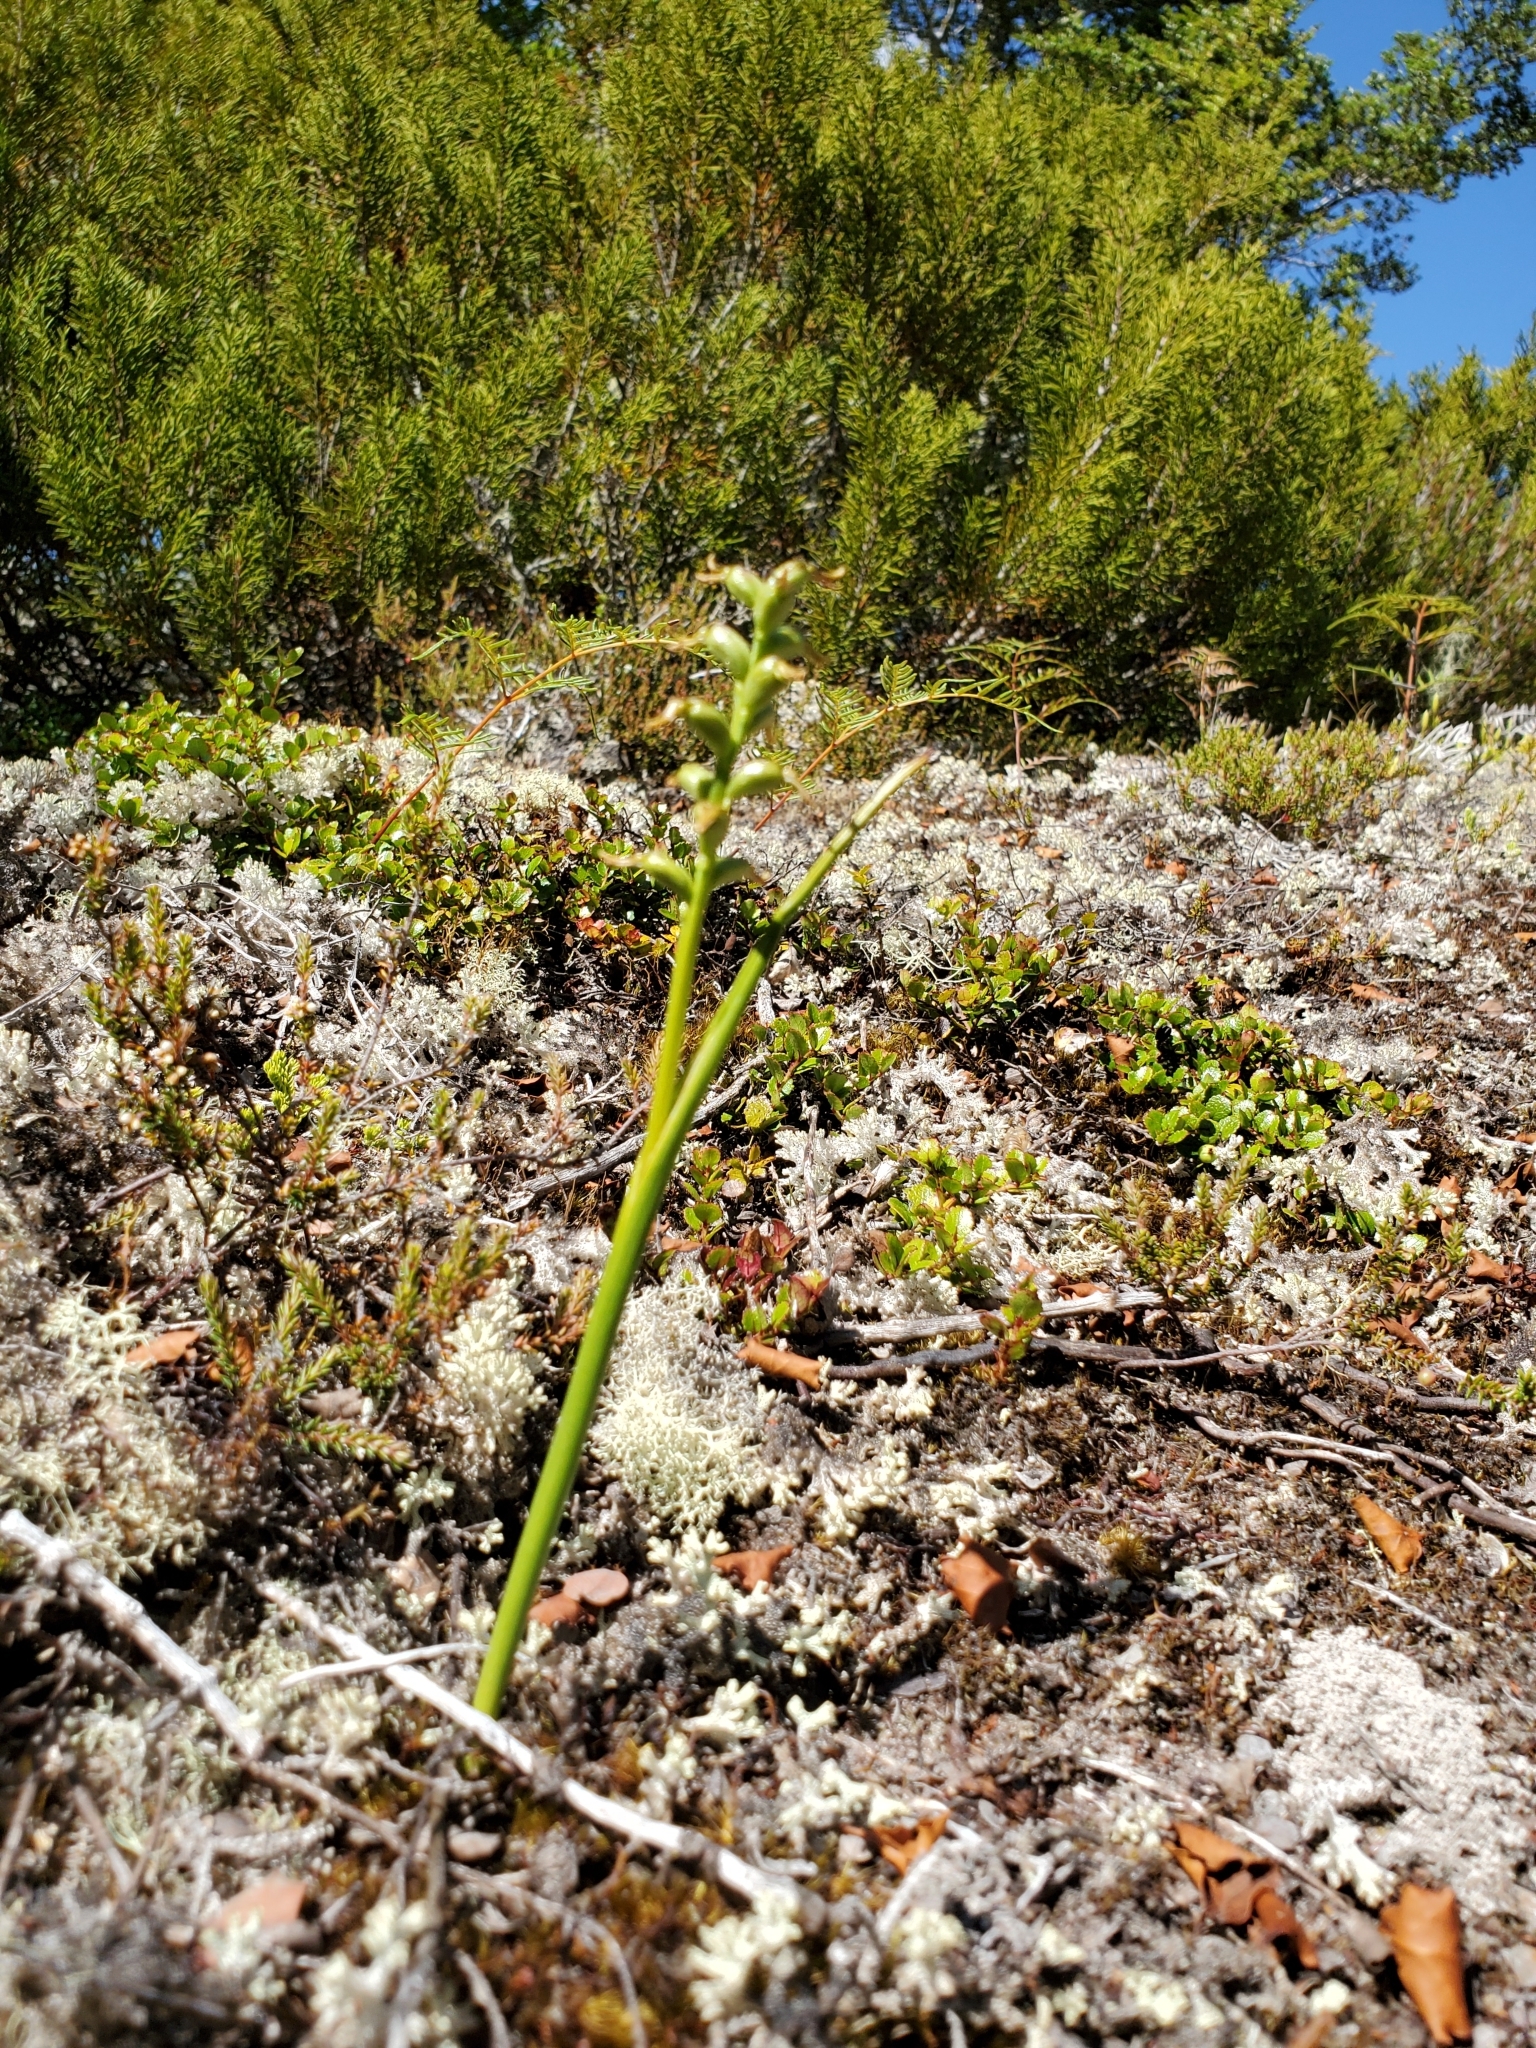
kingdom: Plantae
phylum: Tracheophyta
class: Liliopsida
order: Asparagales
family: Orchidaceae
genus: Prasophyllum
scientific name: Prasophyllum colensoi
